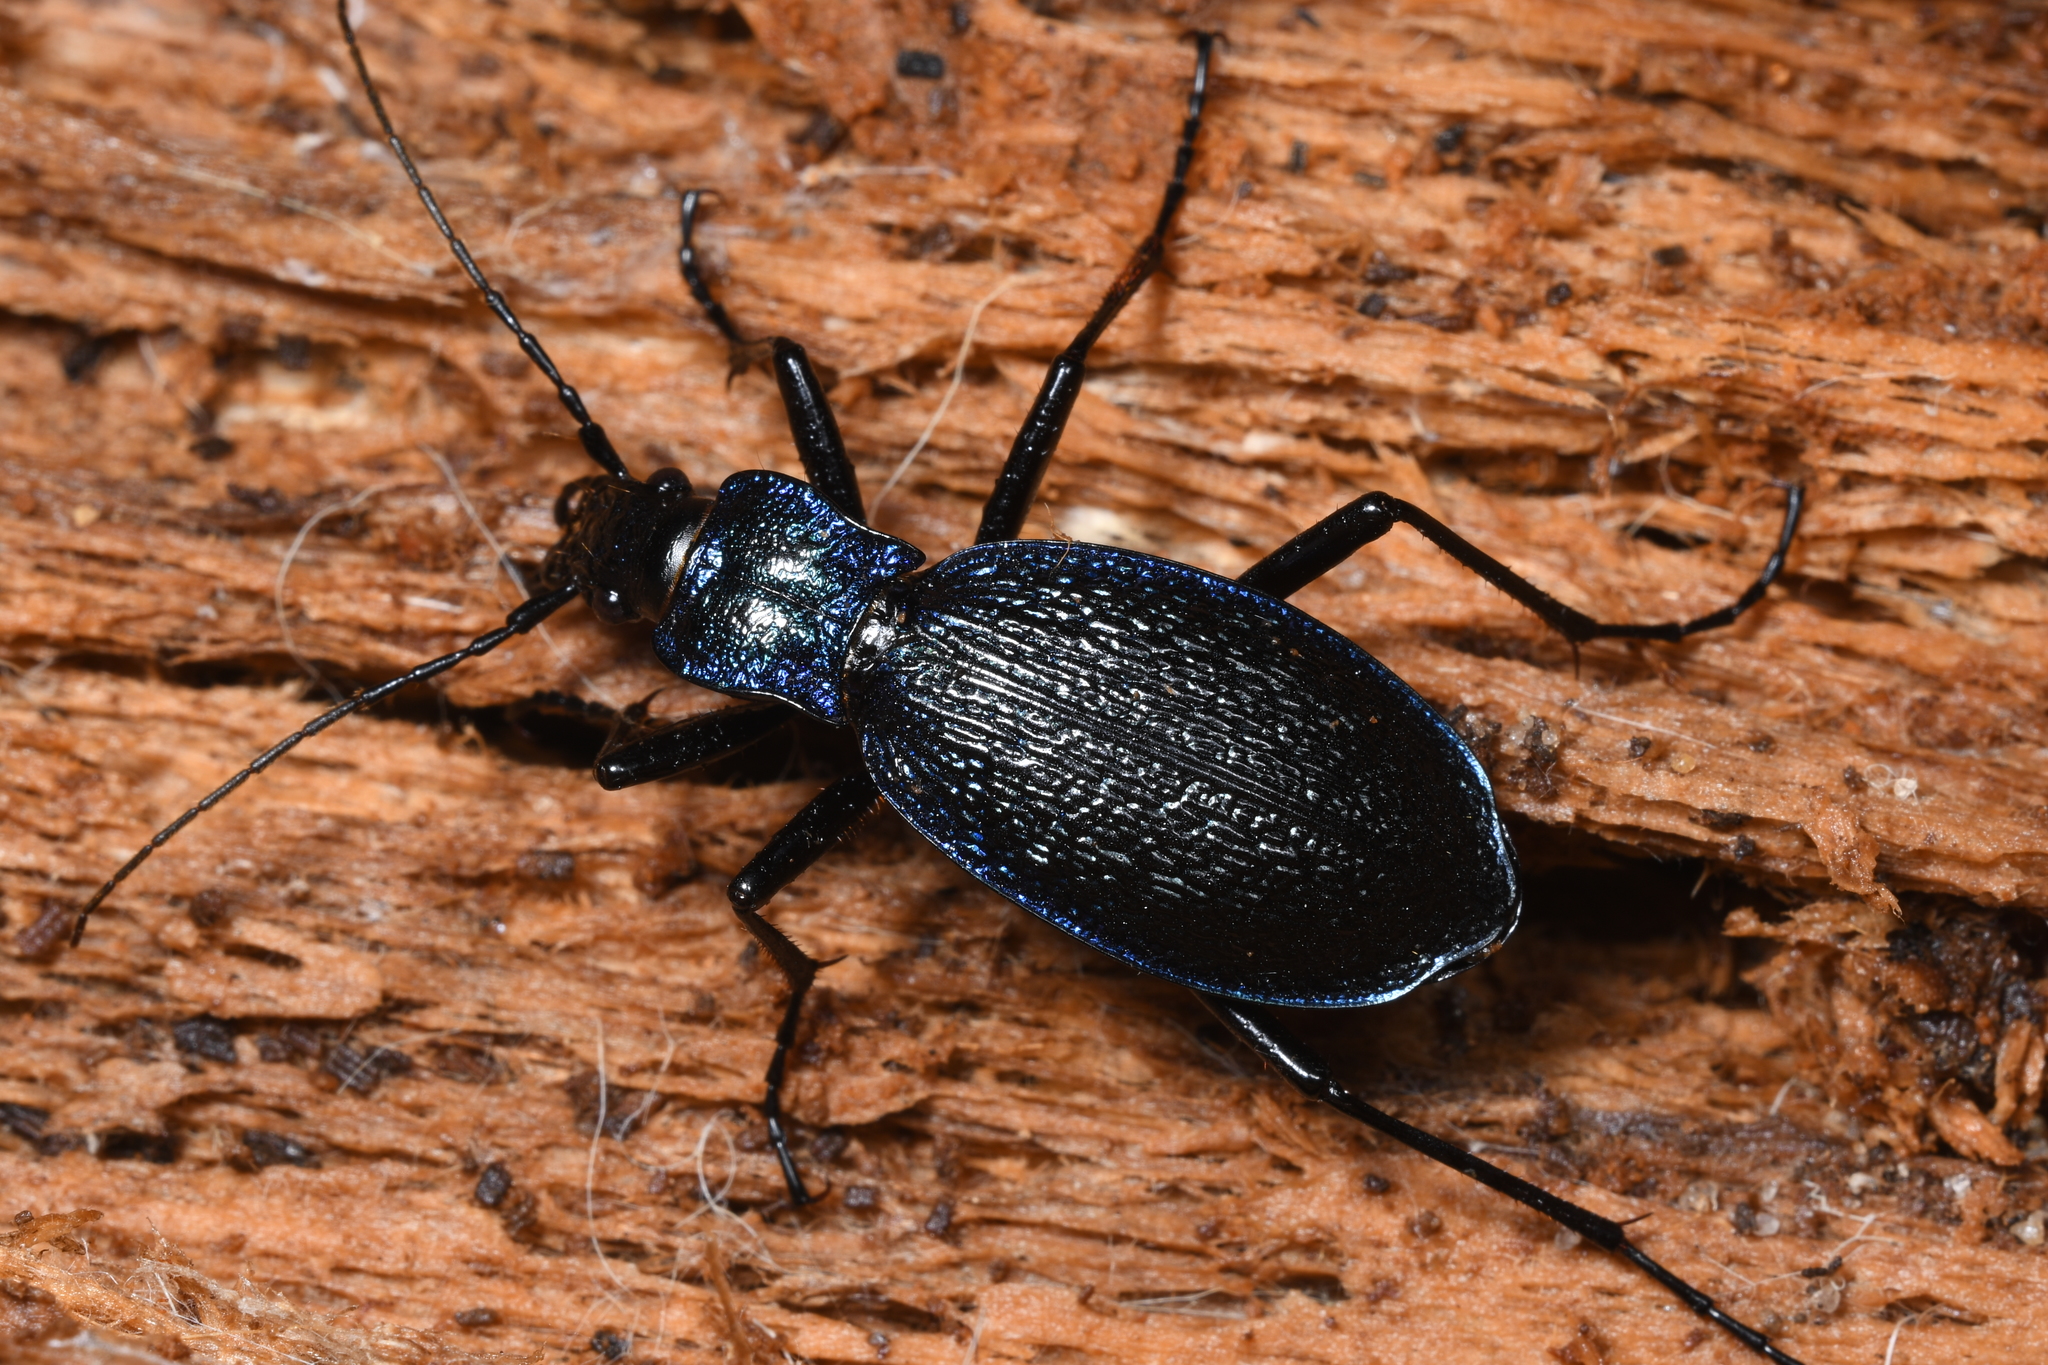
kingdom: Animalia
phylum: Arthropoda
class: Insecta
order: Coleoptera
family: Carabidae
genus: Carabus
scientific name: Carabus intricatus
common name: Blue ground beetle
